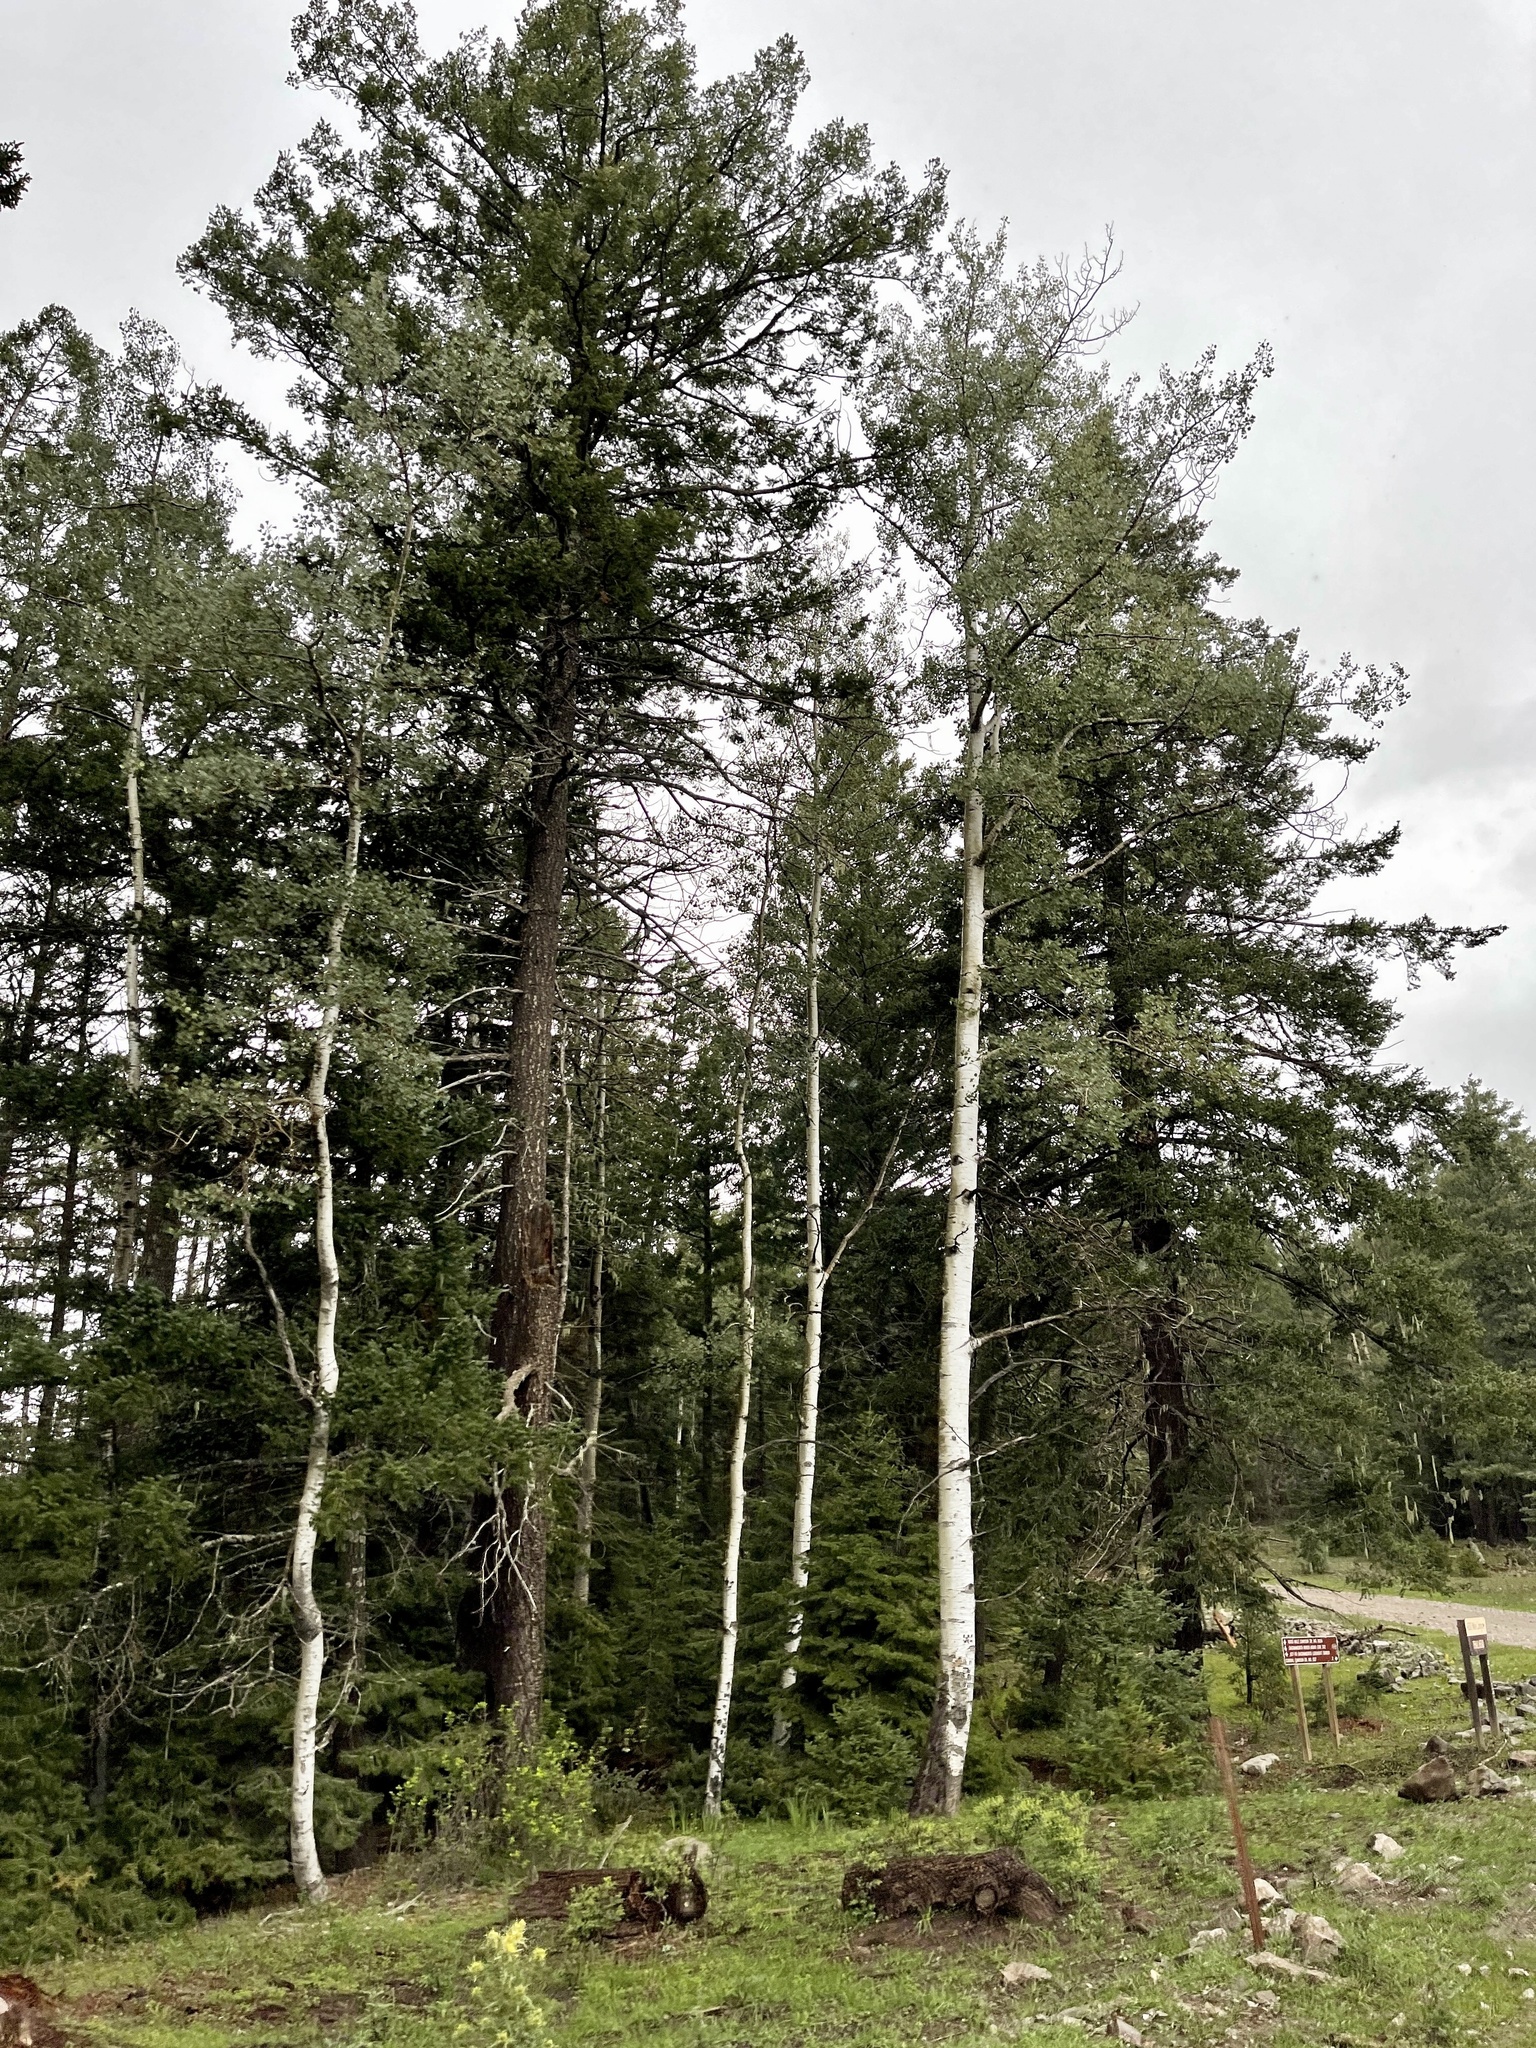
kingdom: Plantae
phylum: Tracheophyta
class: Magnoliopsida
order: Malpighiales
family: Salicaceae
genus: Populus
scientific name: Populus tremuloides
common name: Quaking aspen
